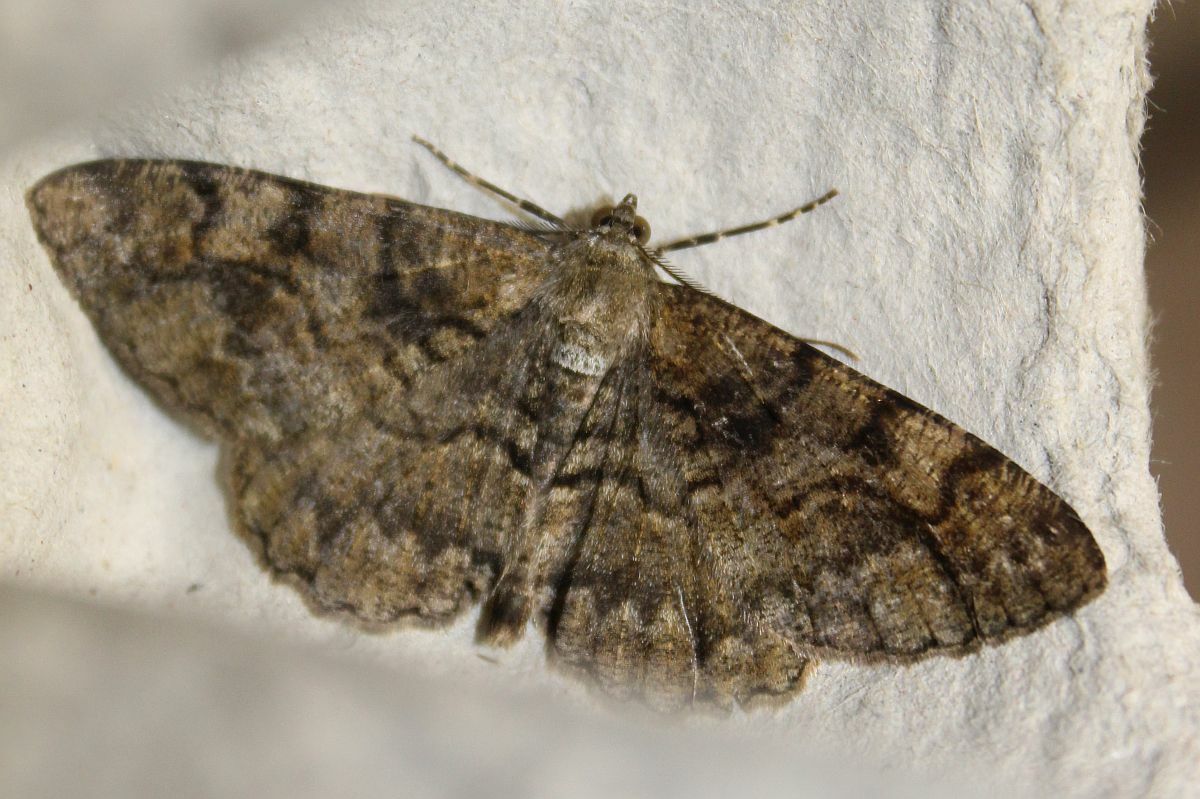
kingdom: Animalia
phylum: Arthropoda
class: Insecta
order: Lepidoptera
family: Geometridae
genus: Alcis
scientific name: Alcis repandata
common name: Mottled beauty
